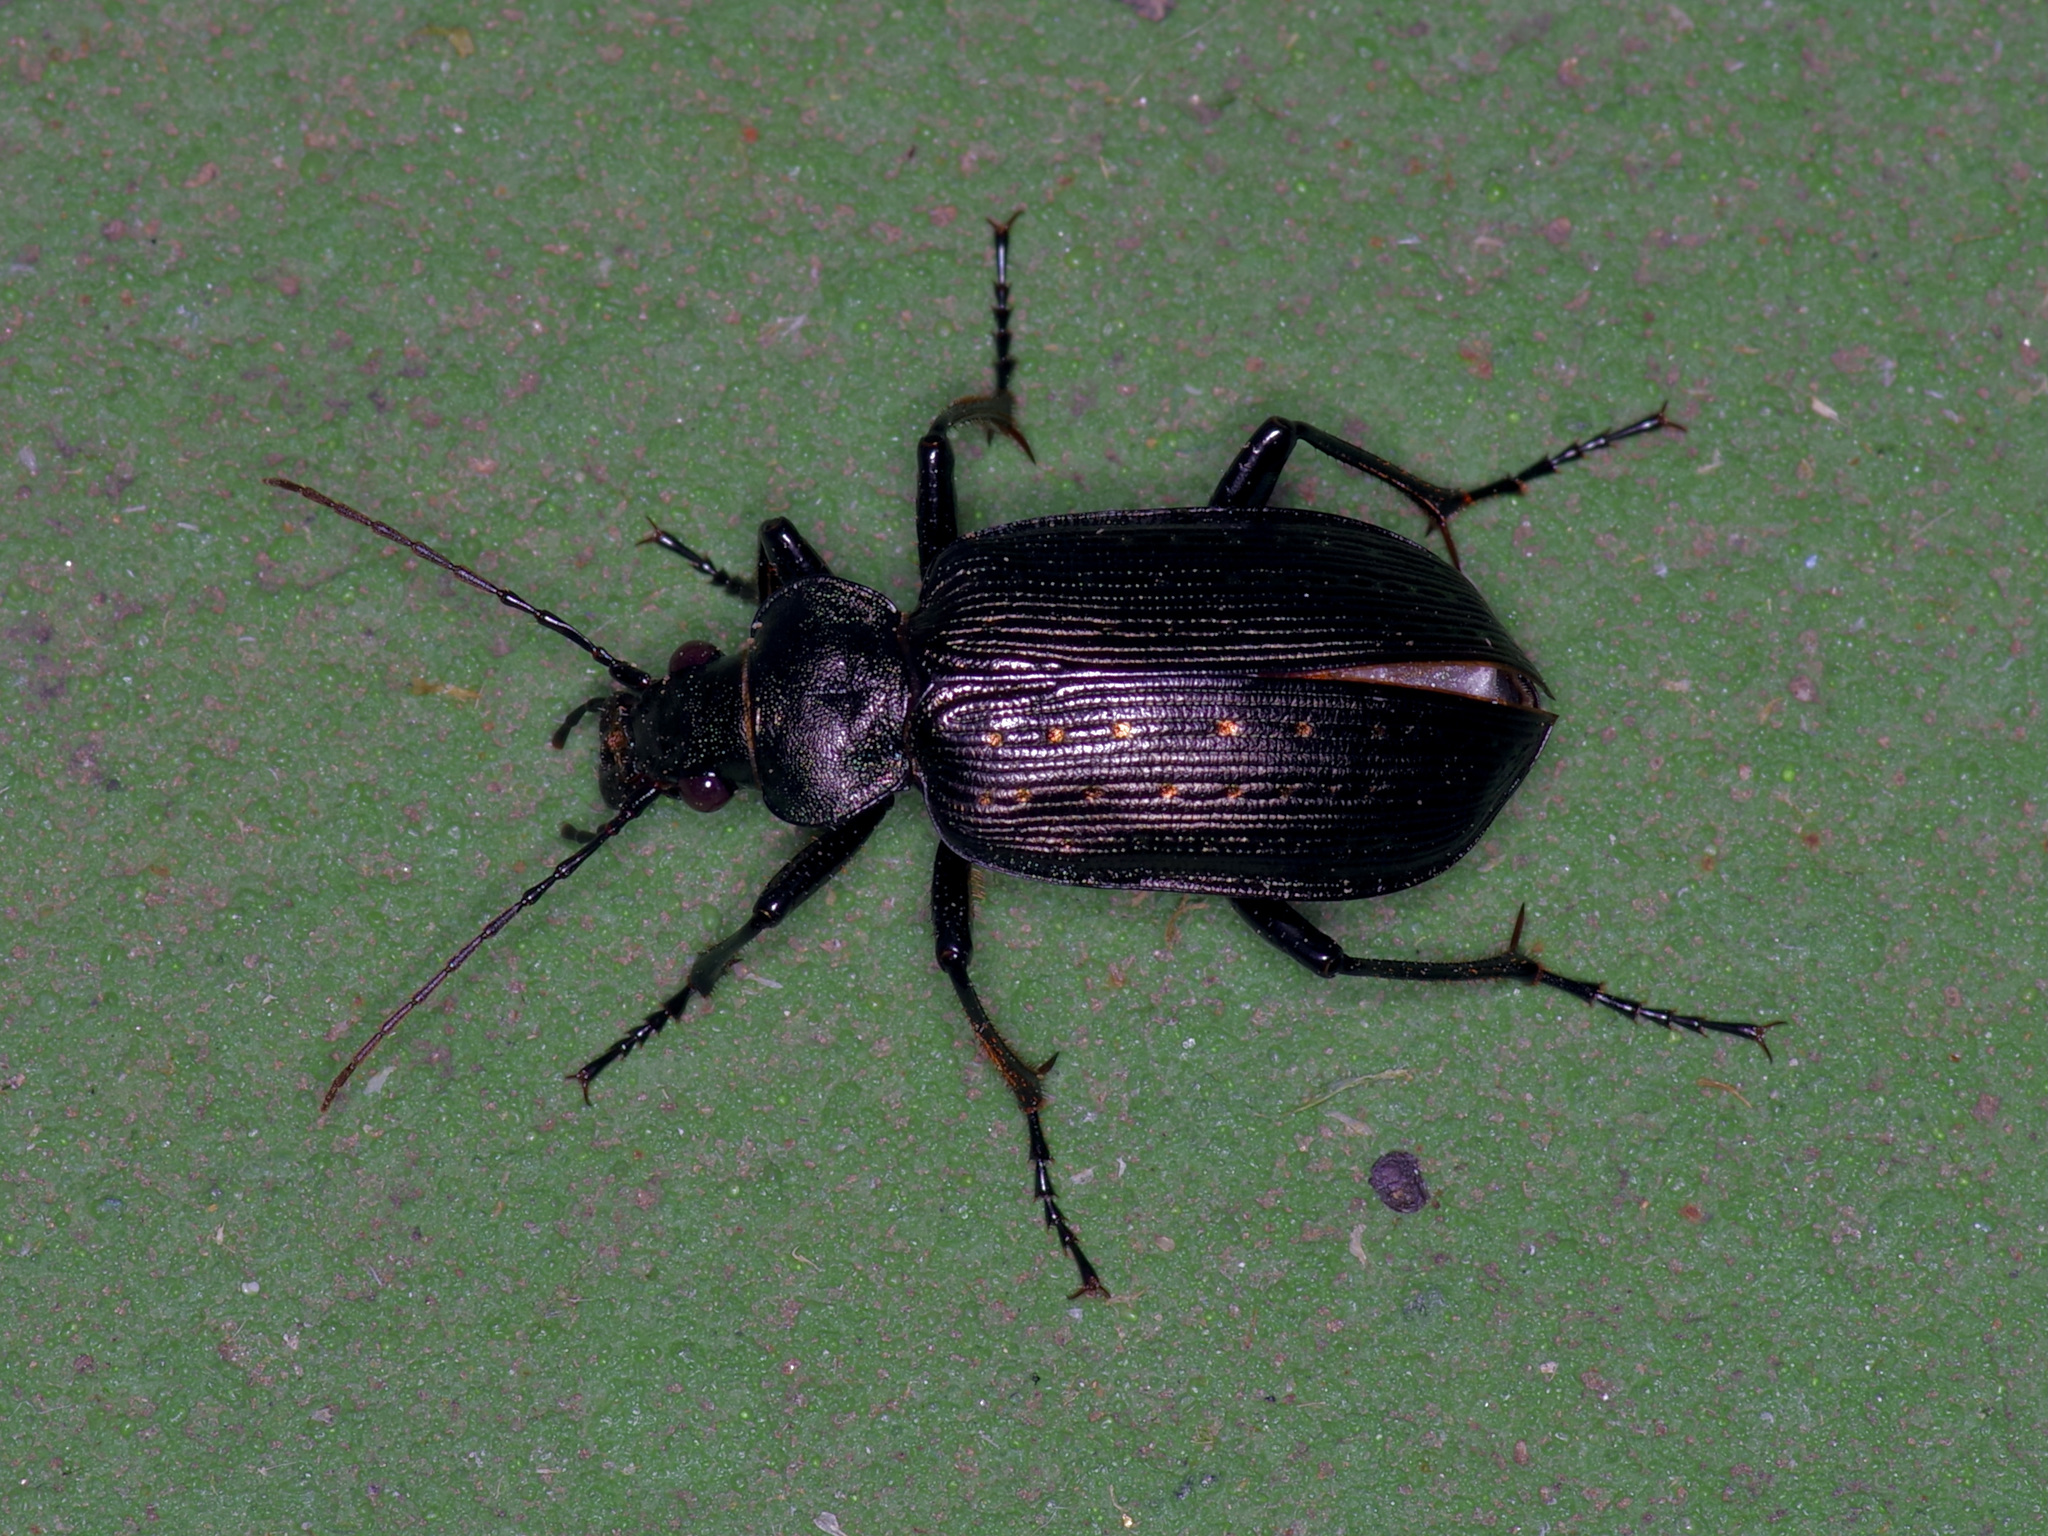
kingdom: Animalia
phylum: Arthropoda
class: Insecta
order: Coleoptera
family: Carabidae
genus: Calosoma
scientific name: Calosoma sayi
